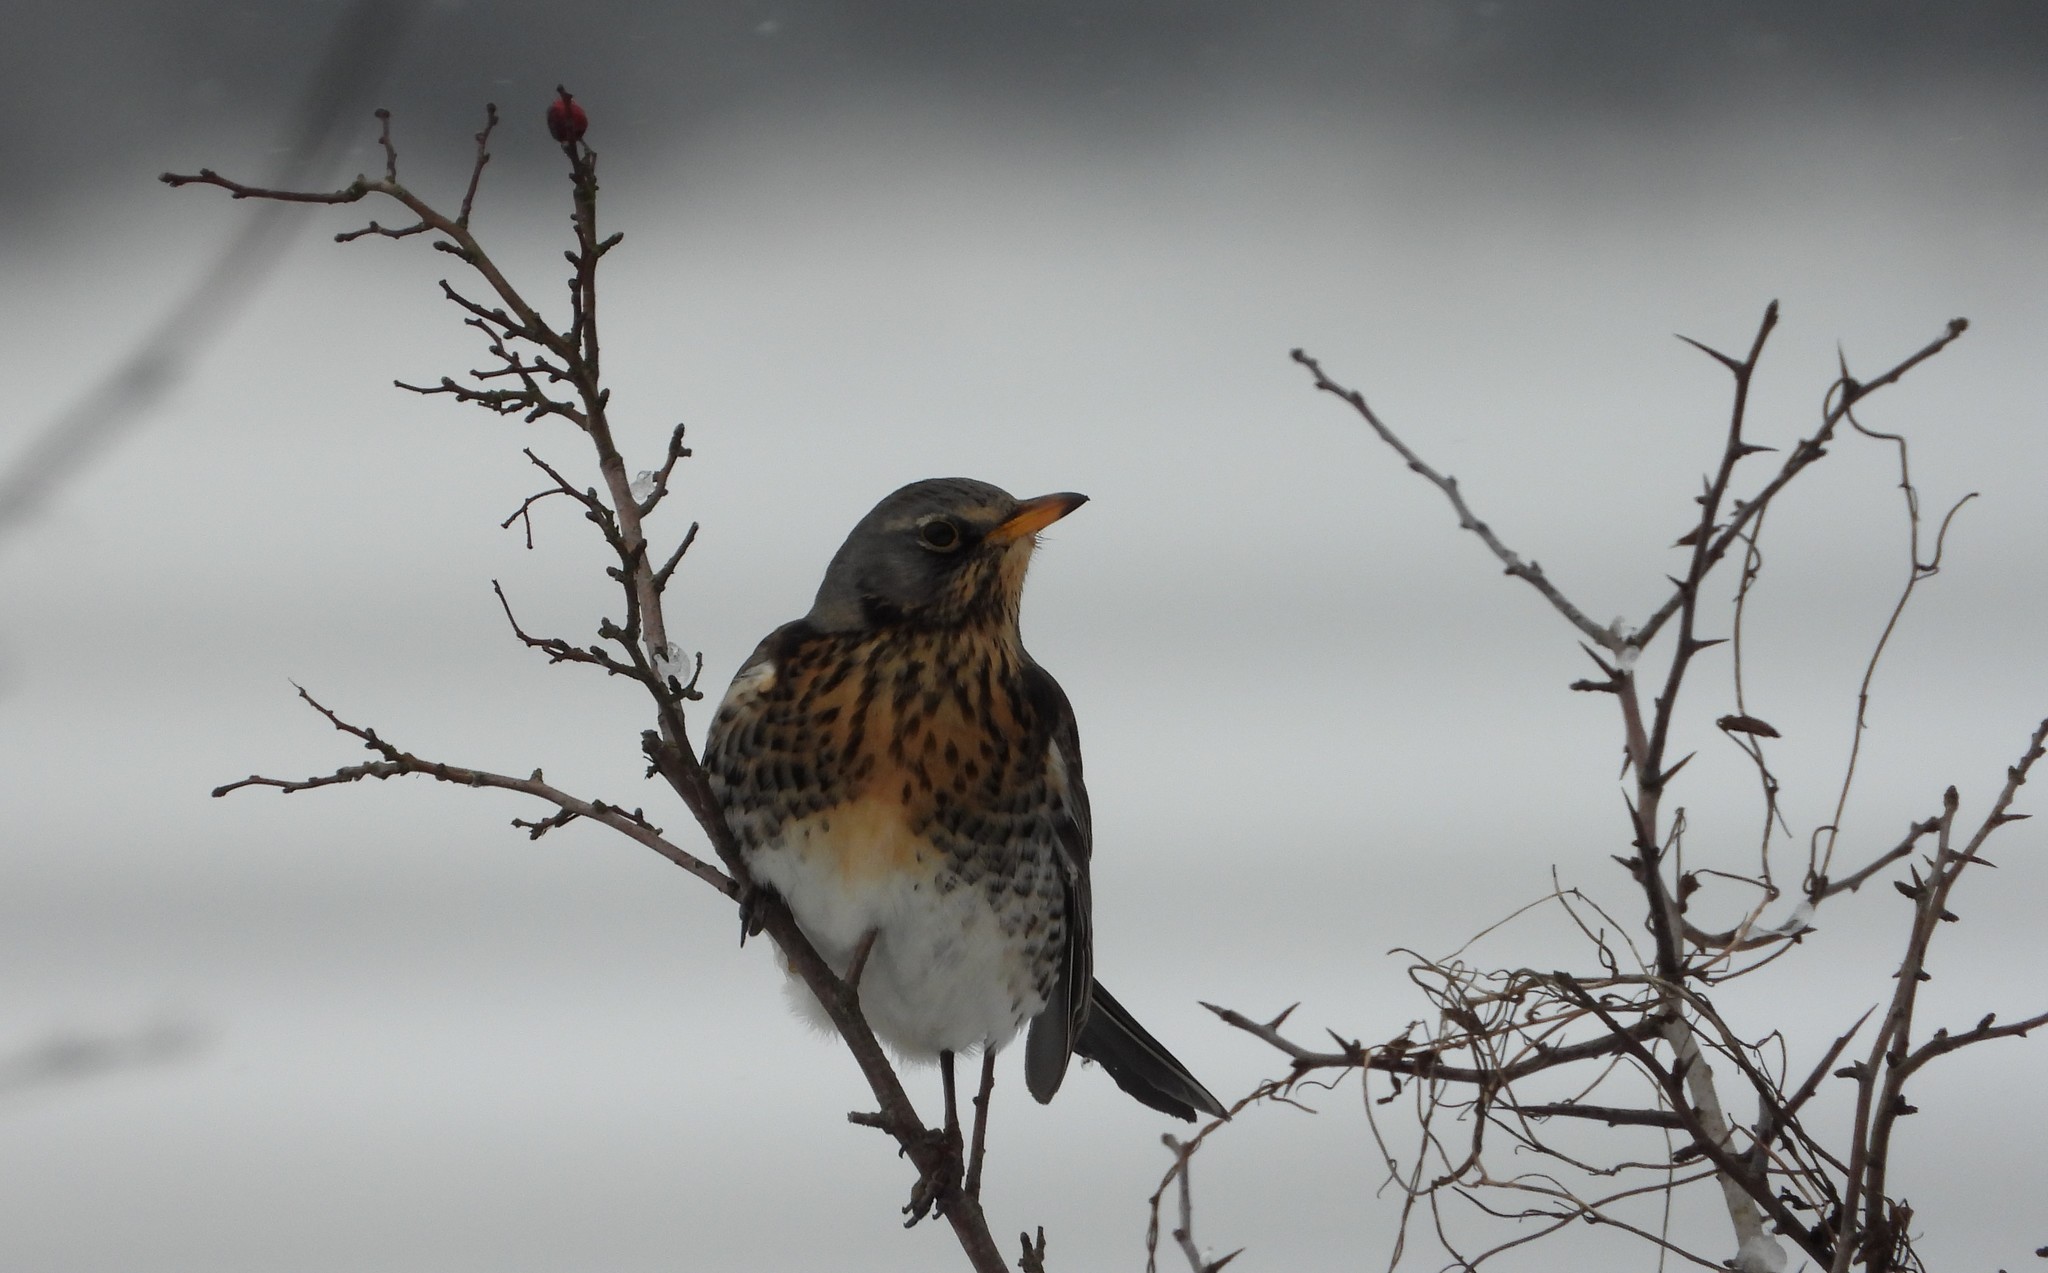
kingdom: Animalia
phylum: Chordata
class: Aves
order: Passeriformes
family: Turdidae
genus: Turdus
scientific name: Turdus pilaris
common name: Fieldfare
